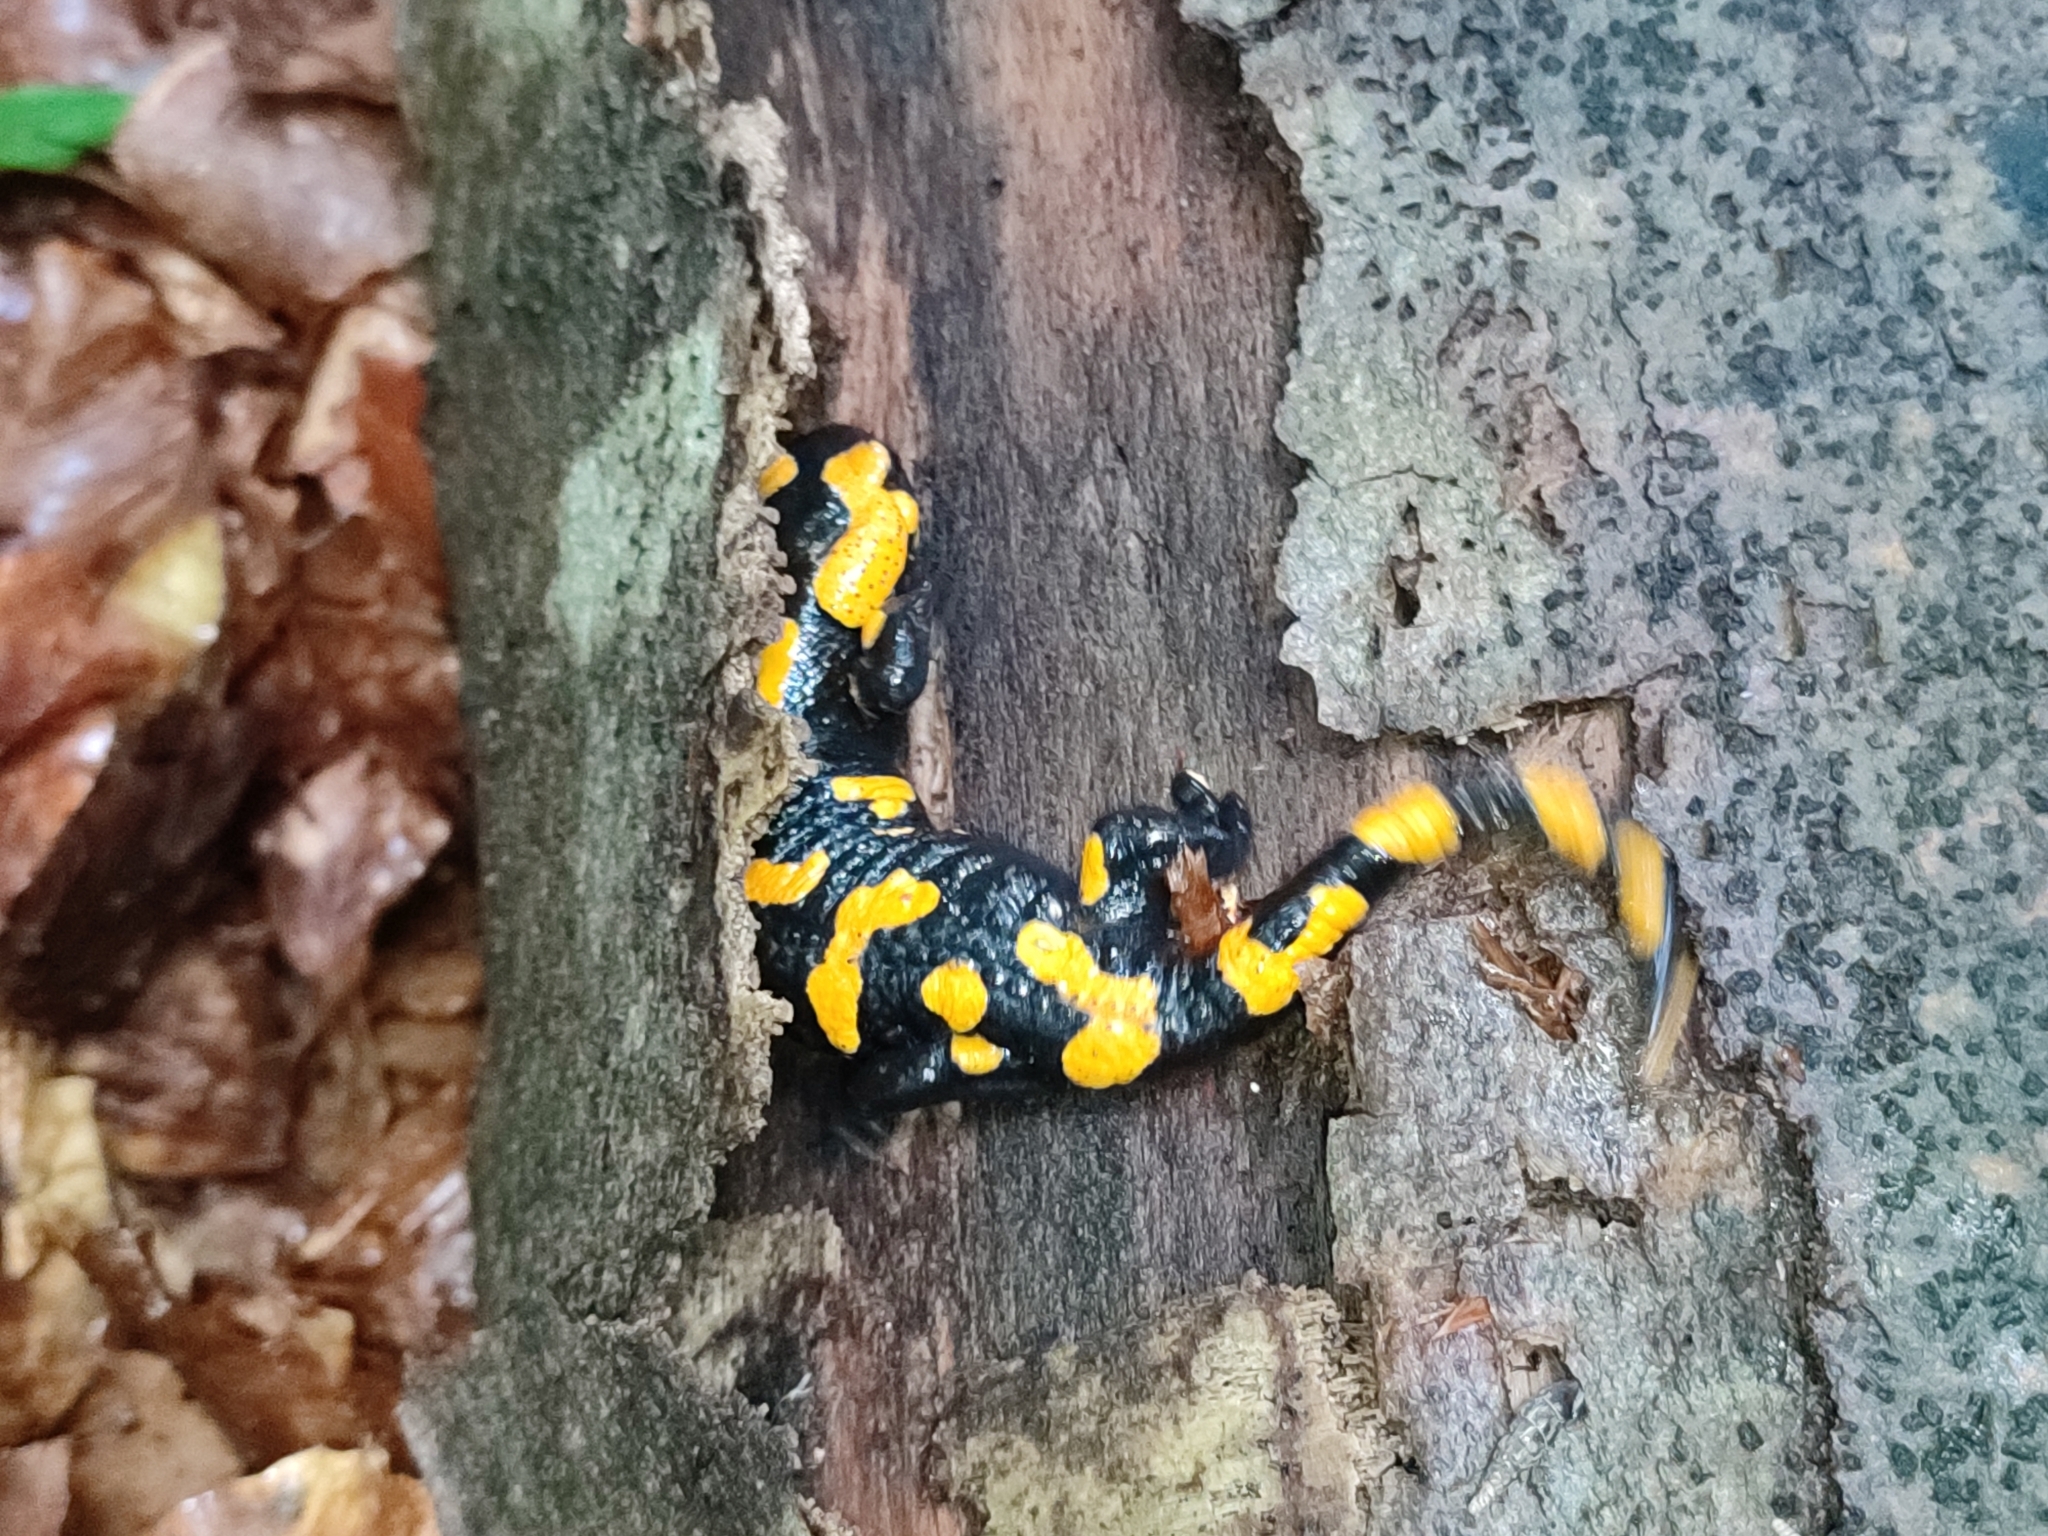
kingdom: Animalia
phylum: Chordata
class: Amphibia
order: Caudata
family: Salamandridae
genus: Salamandra
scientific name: Salamandra salamandra
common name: Fire salamander
